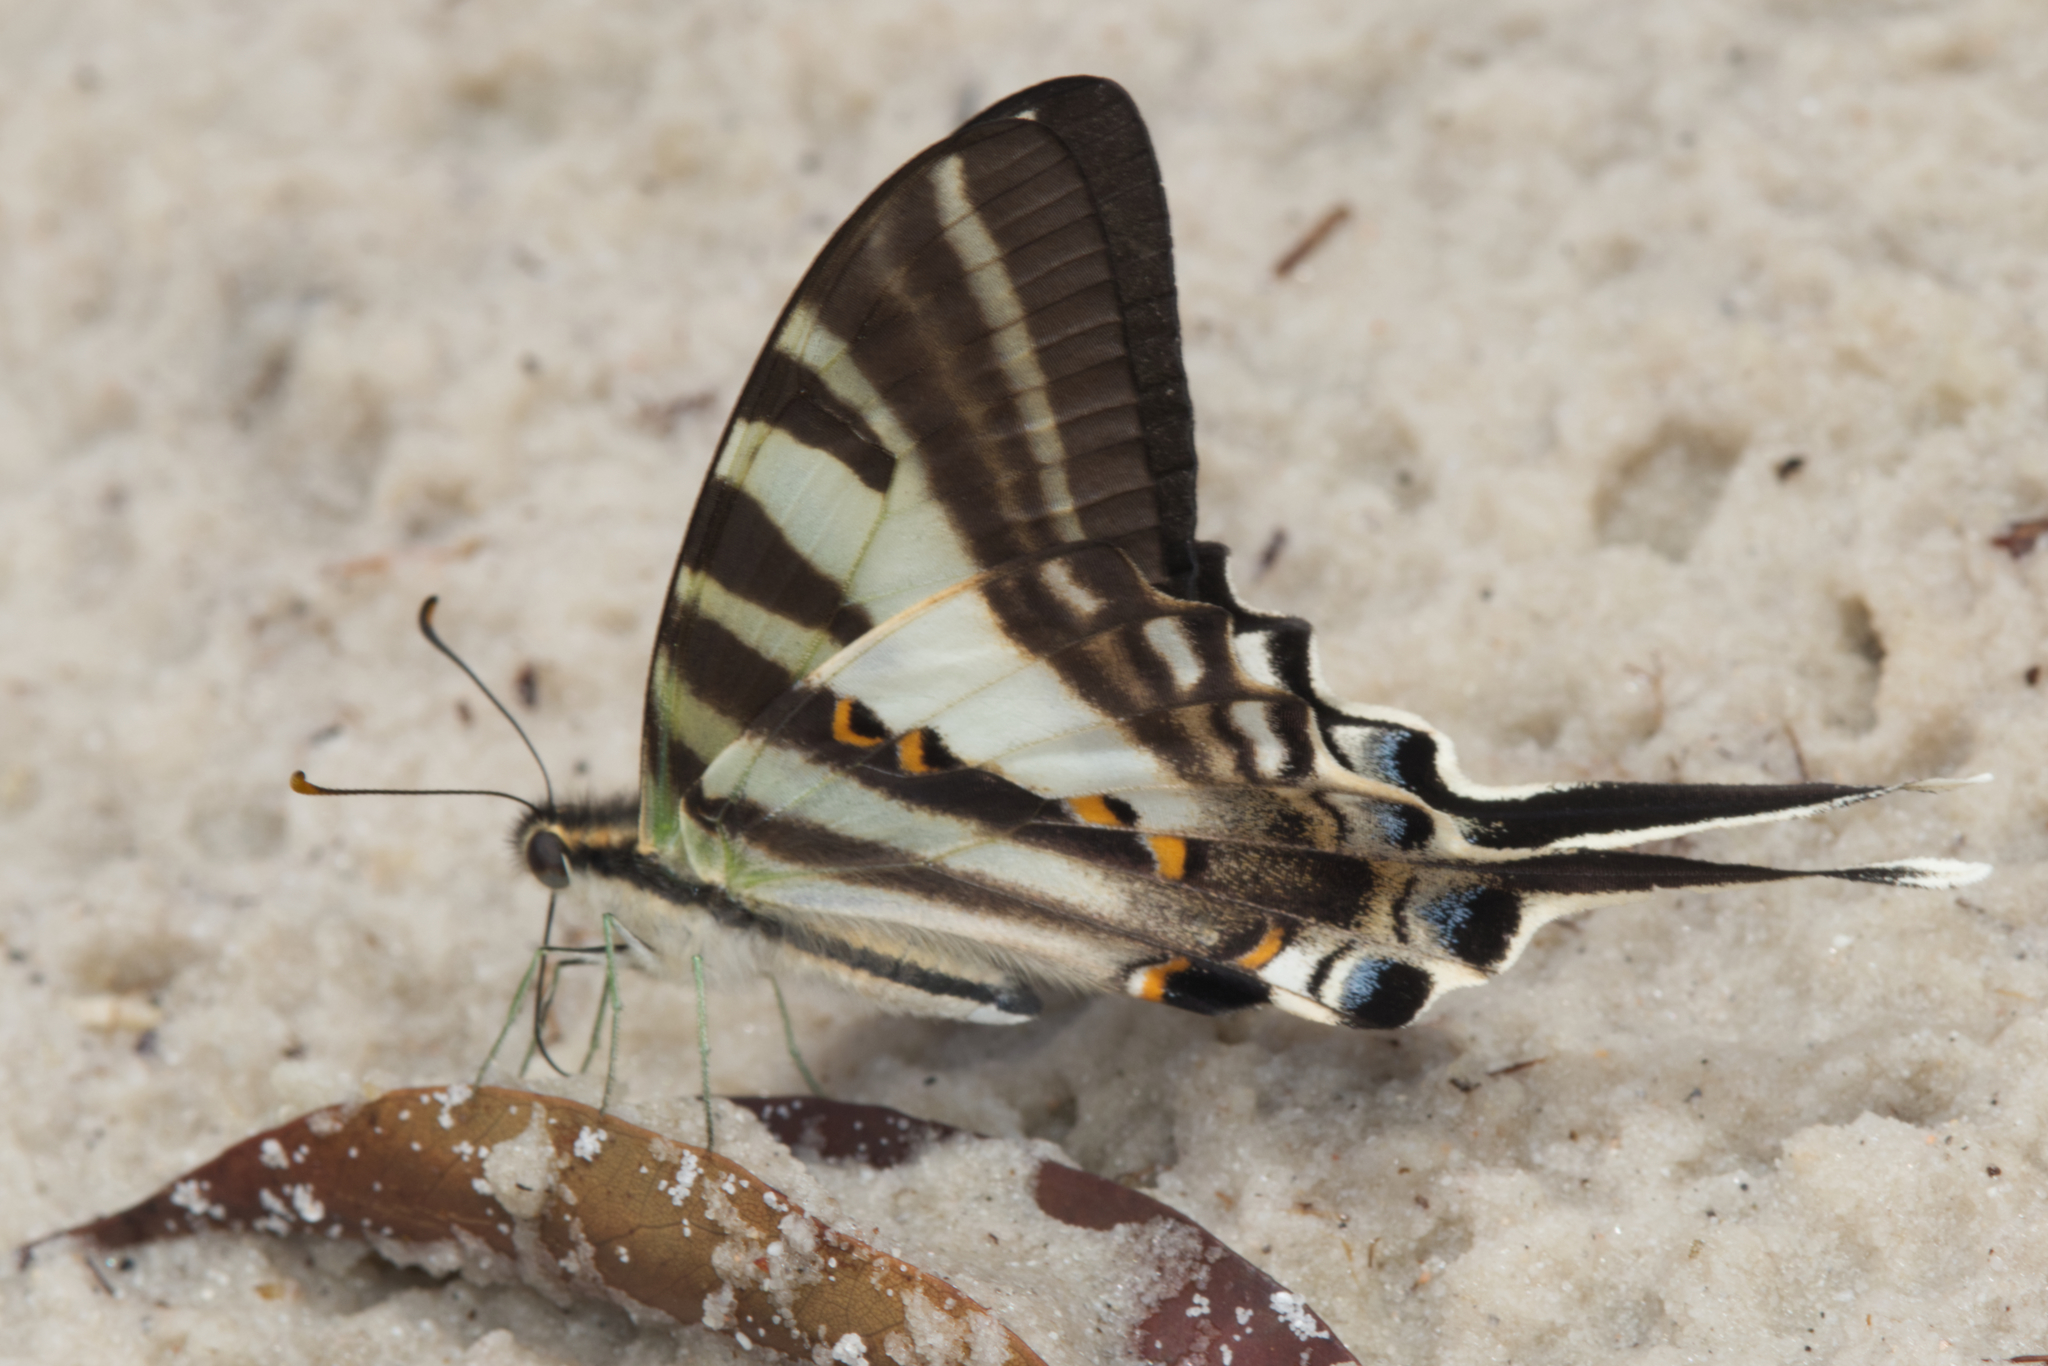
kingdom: Animalia
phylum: Arthropoda
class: Insecta
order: Lepidoptera
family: Papilionidae
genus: Protographium
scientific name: Protographium leosthenes
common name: Four-bar swordtail
